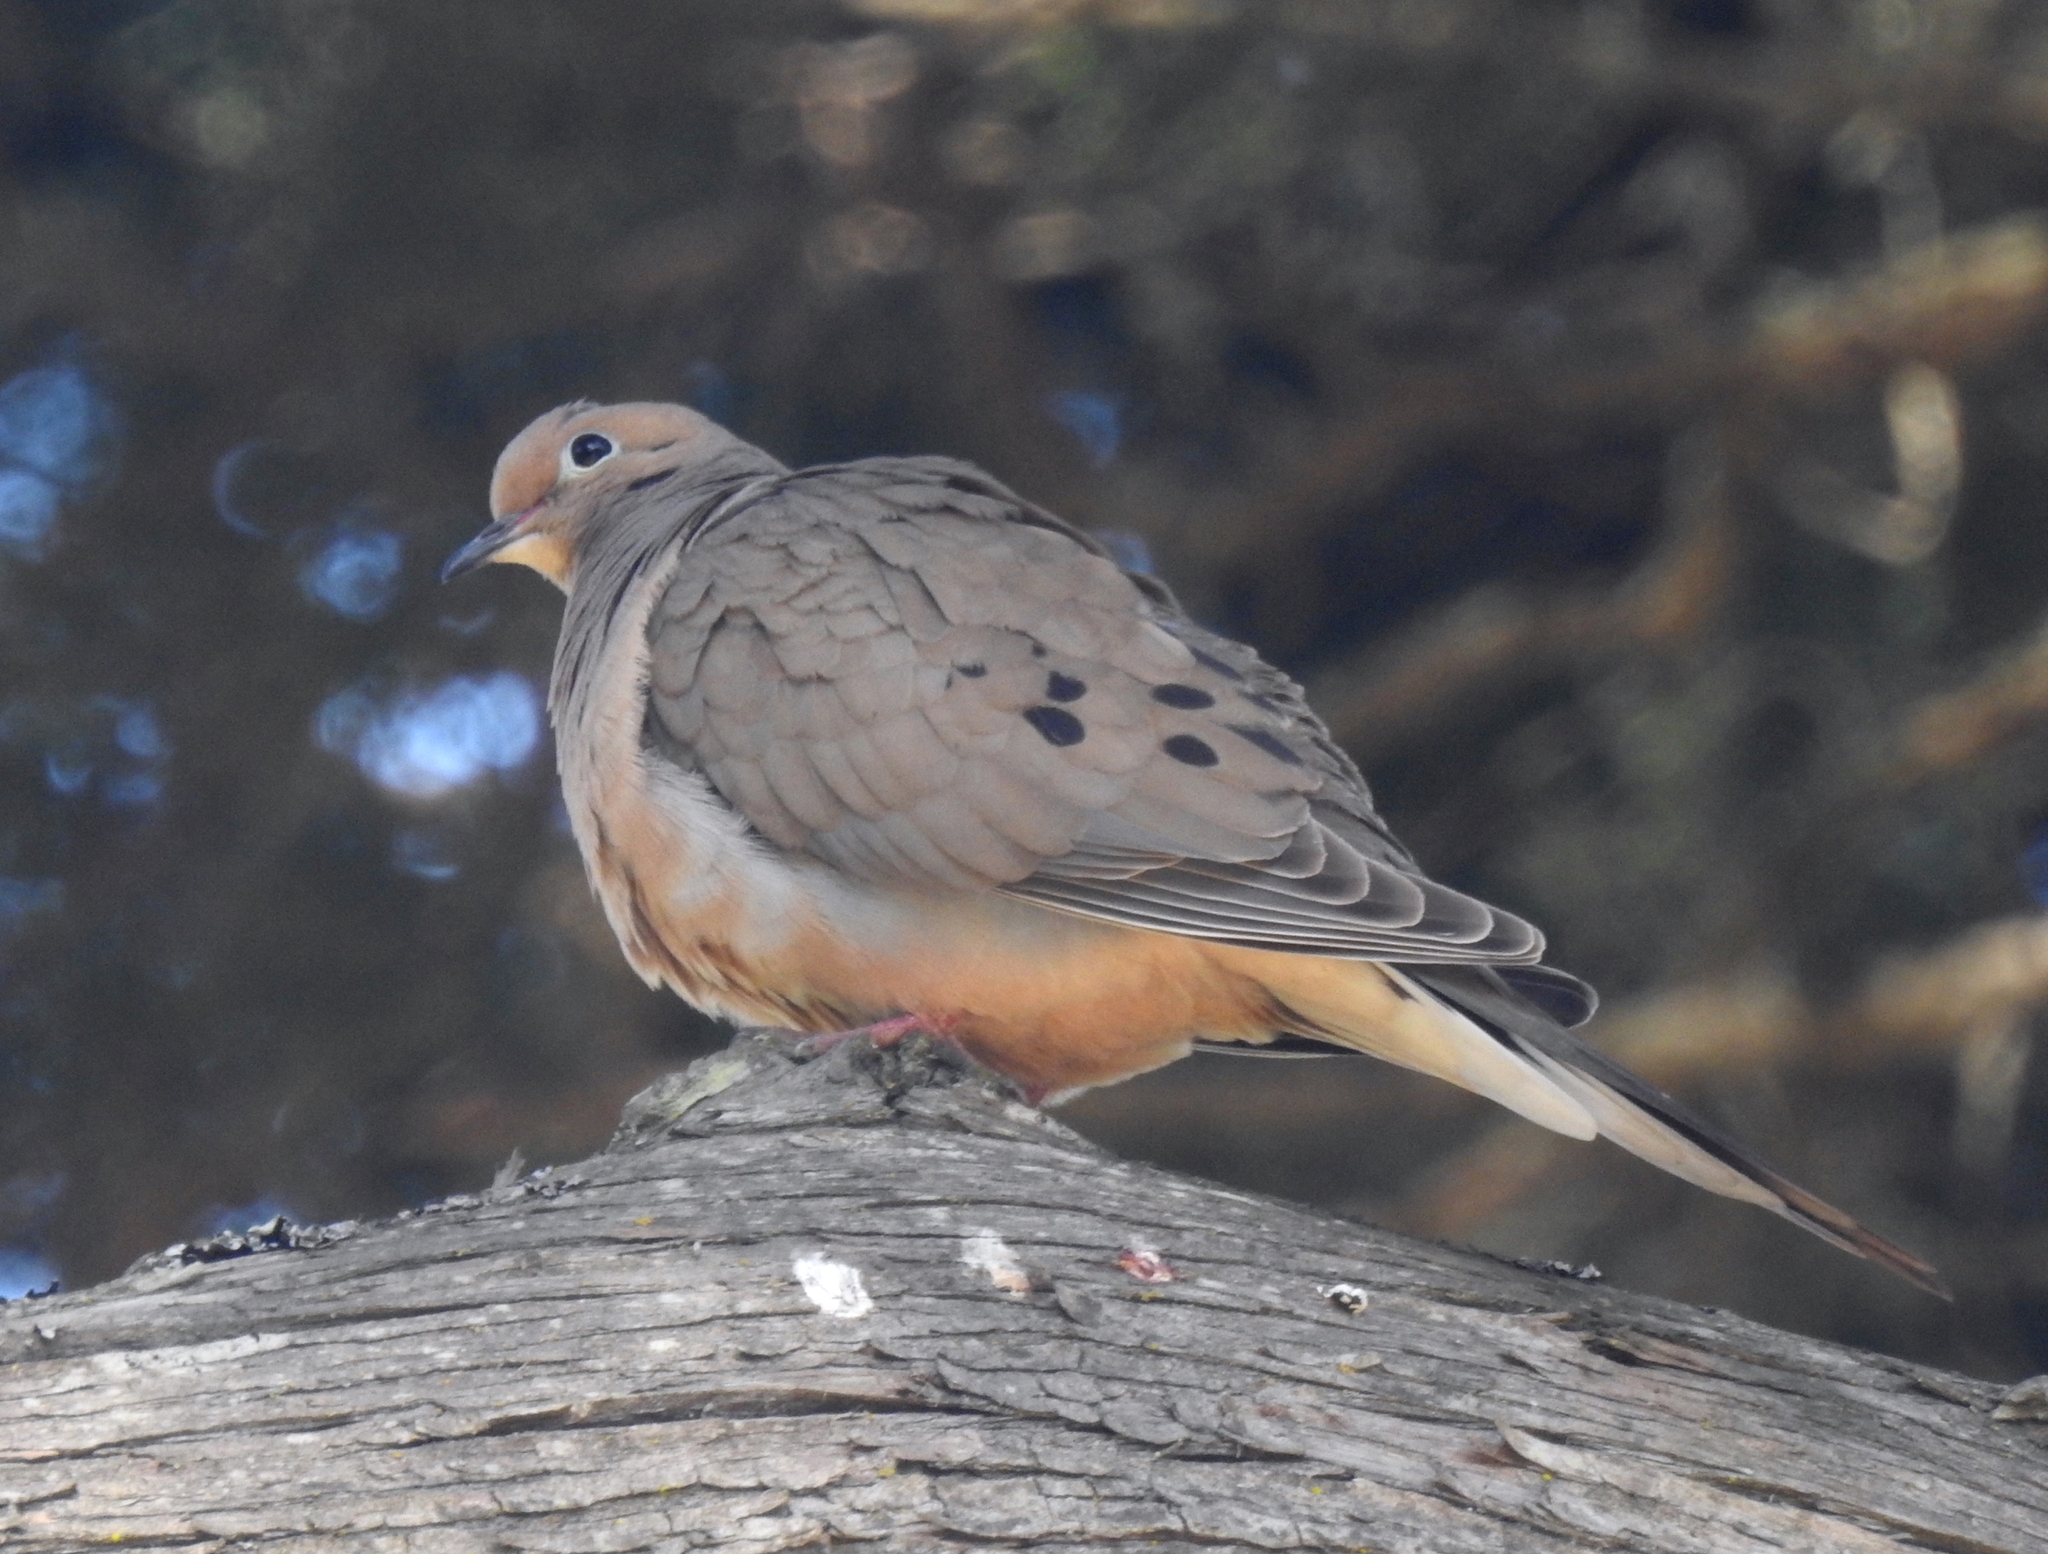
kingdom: Animalia
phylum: Chordata
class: Aves
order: Columbiformes
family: Columbidae
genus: Zenaida
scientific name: Zenaida macroura
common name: Mourning dove
